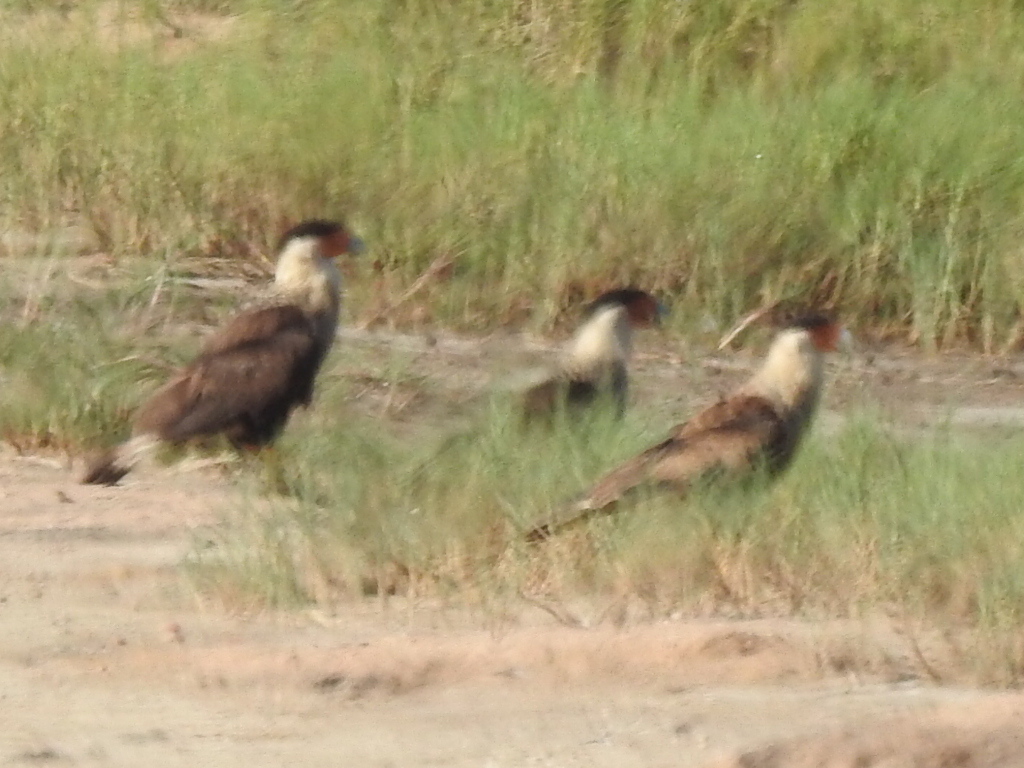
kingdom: Animalia
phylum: Chordata
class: Aves
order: Falconiformes
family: Falconidae
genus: Caracara
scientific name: Caracara plancus
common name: Southern caracara
